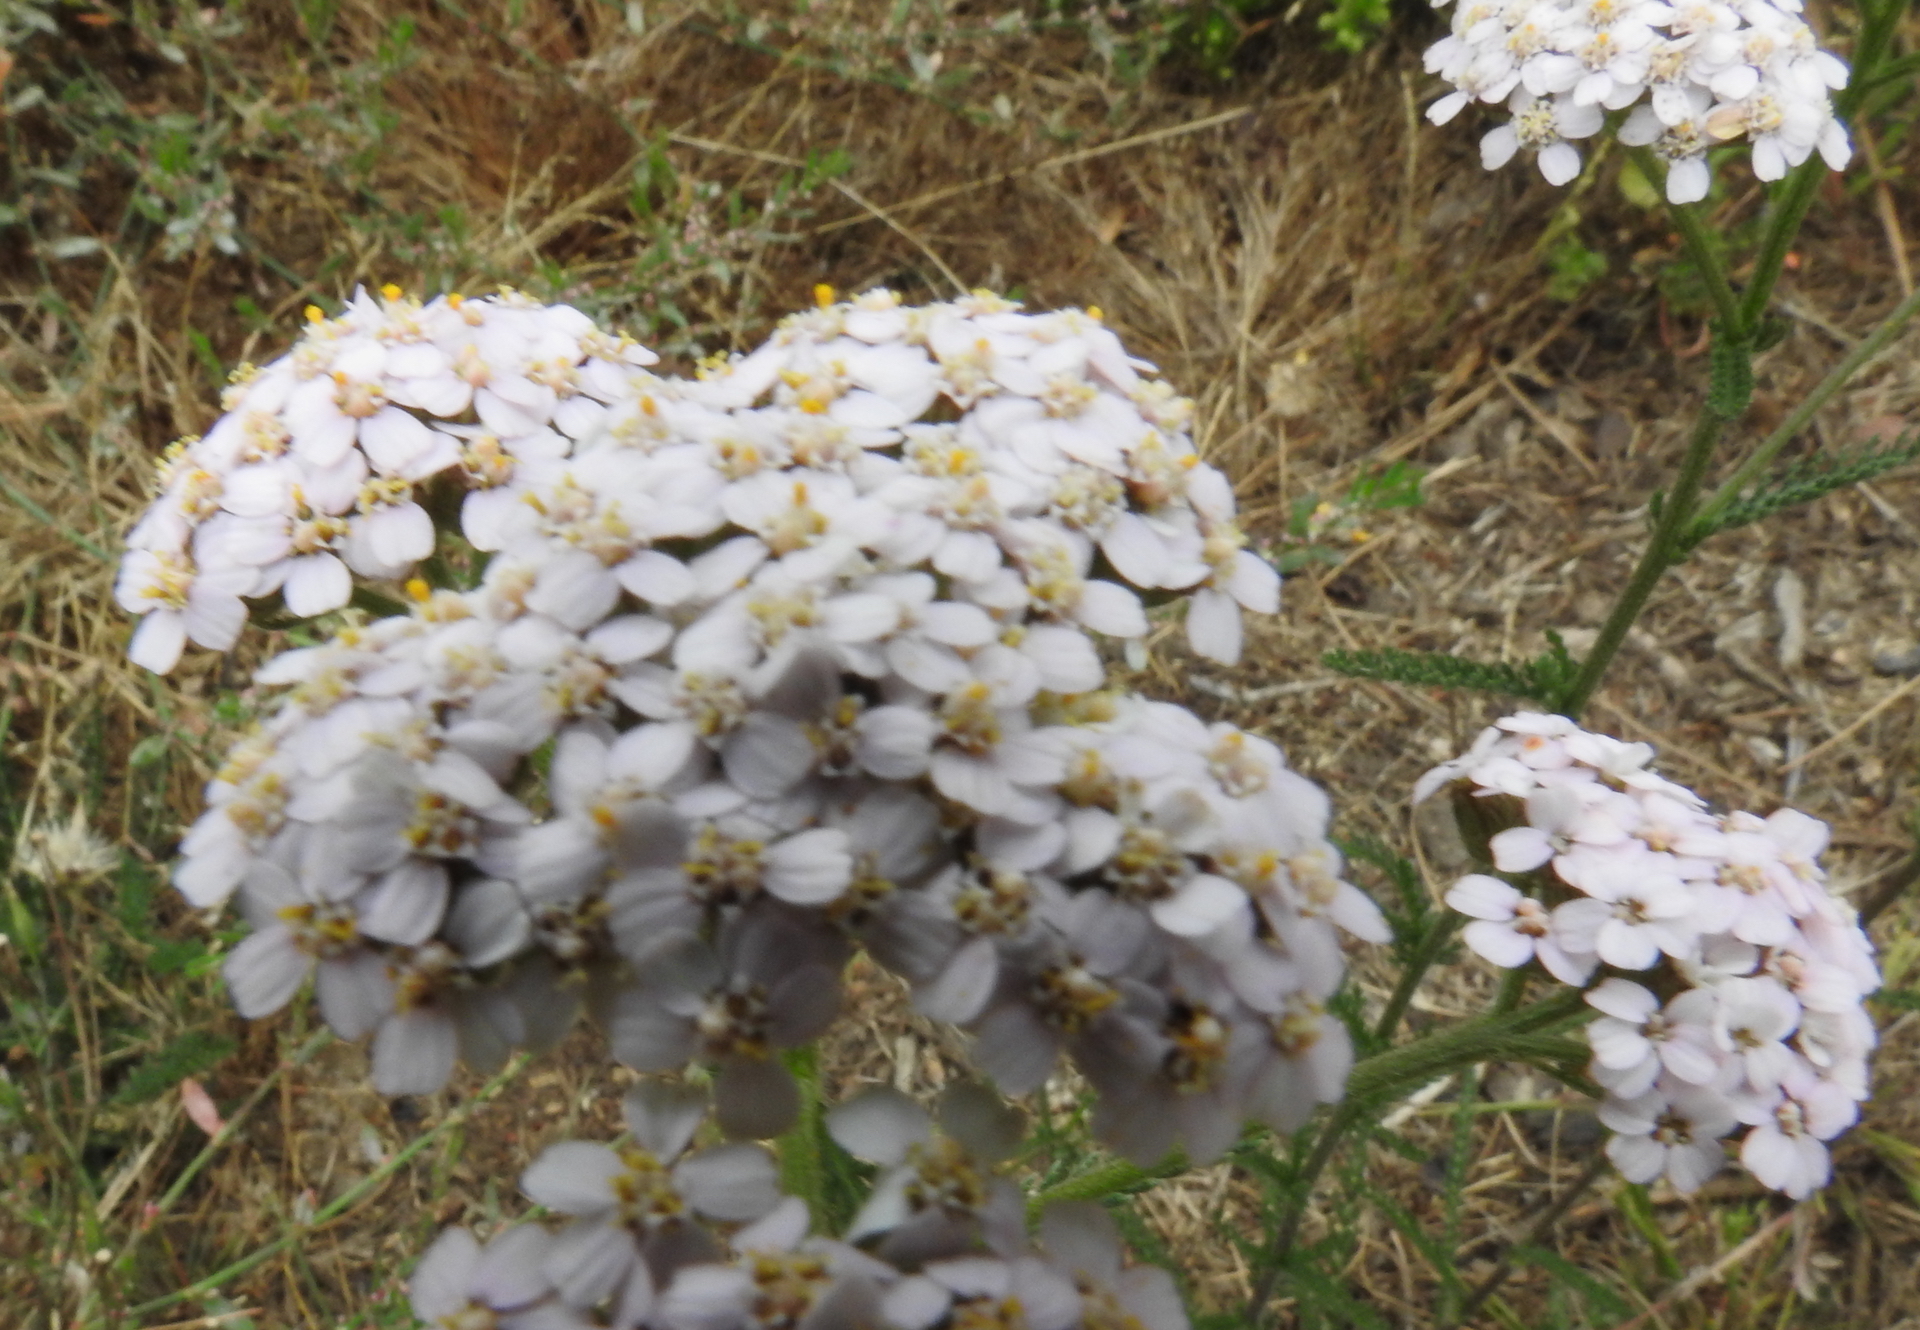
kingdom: Plantae
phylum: Tracheophyta
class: Magnoliopsida
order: Asterales
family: Asteraceae
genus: Achillea
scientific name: Achillea millefolium
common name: Yarrow
